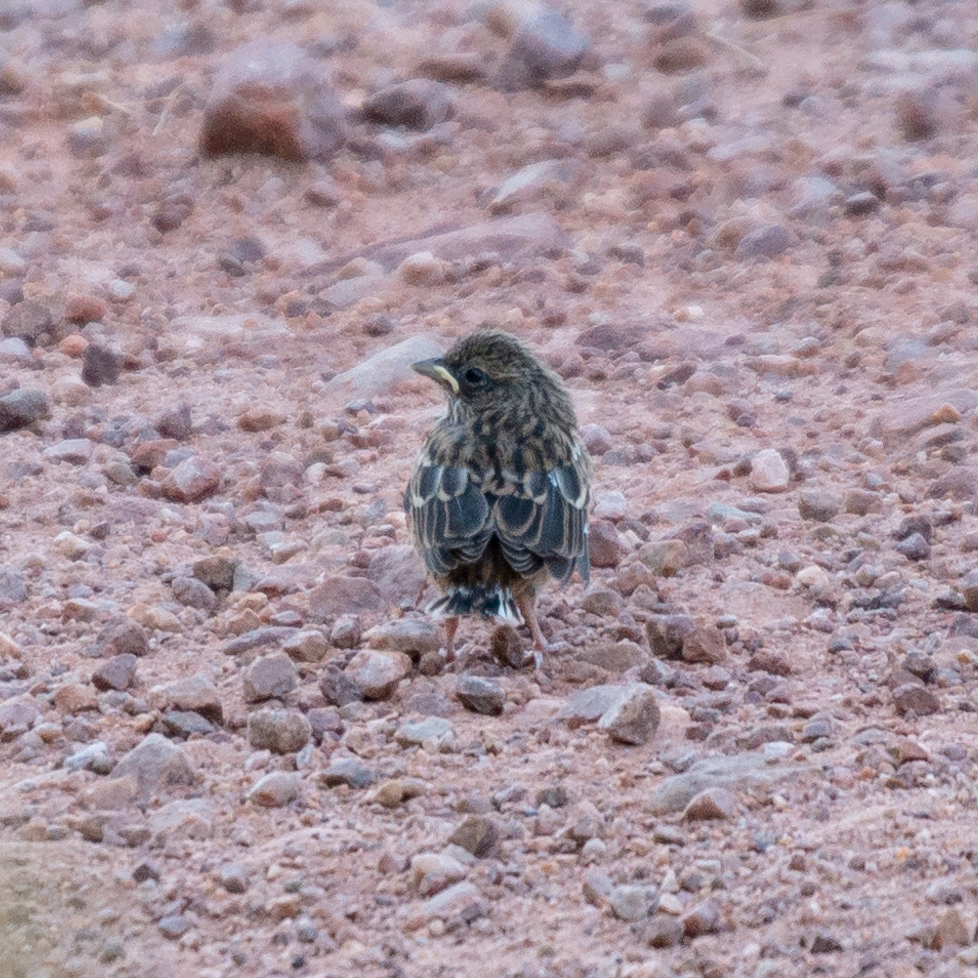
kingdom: Animalia
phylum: Chordata
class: Aves
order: Passeriformes
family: Emberizidae
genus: Emberiza
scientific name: Emberiza cia
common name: Rock bunting
